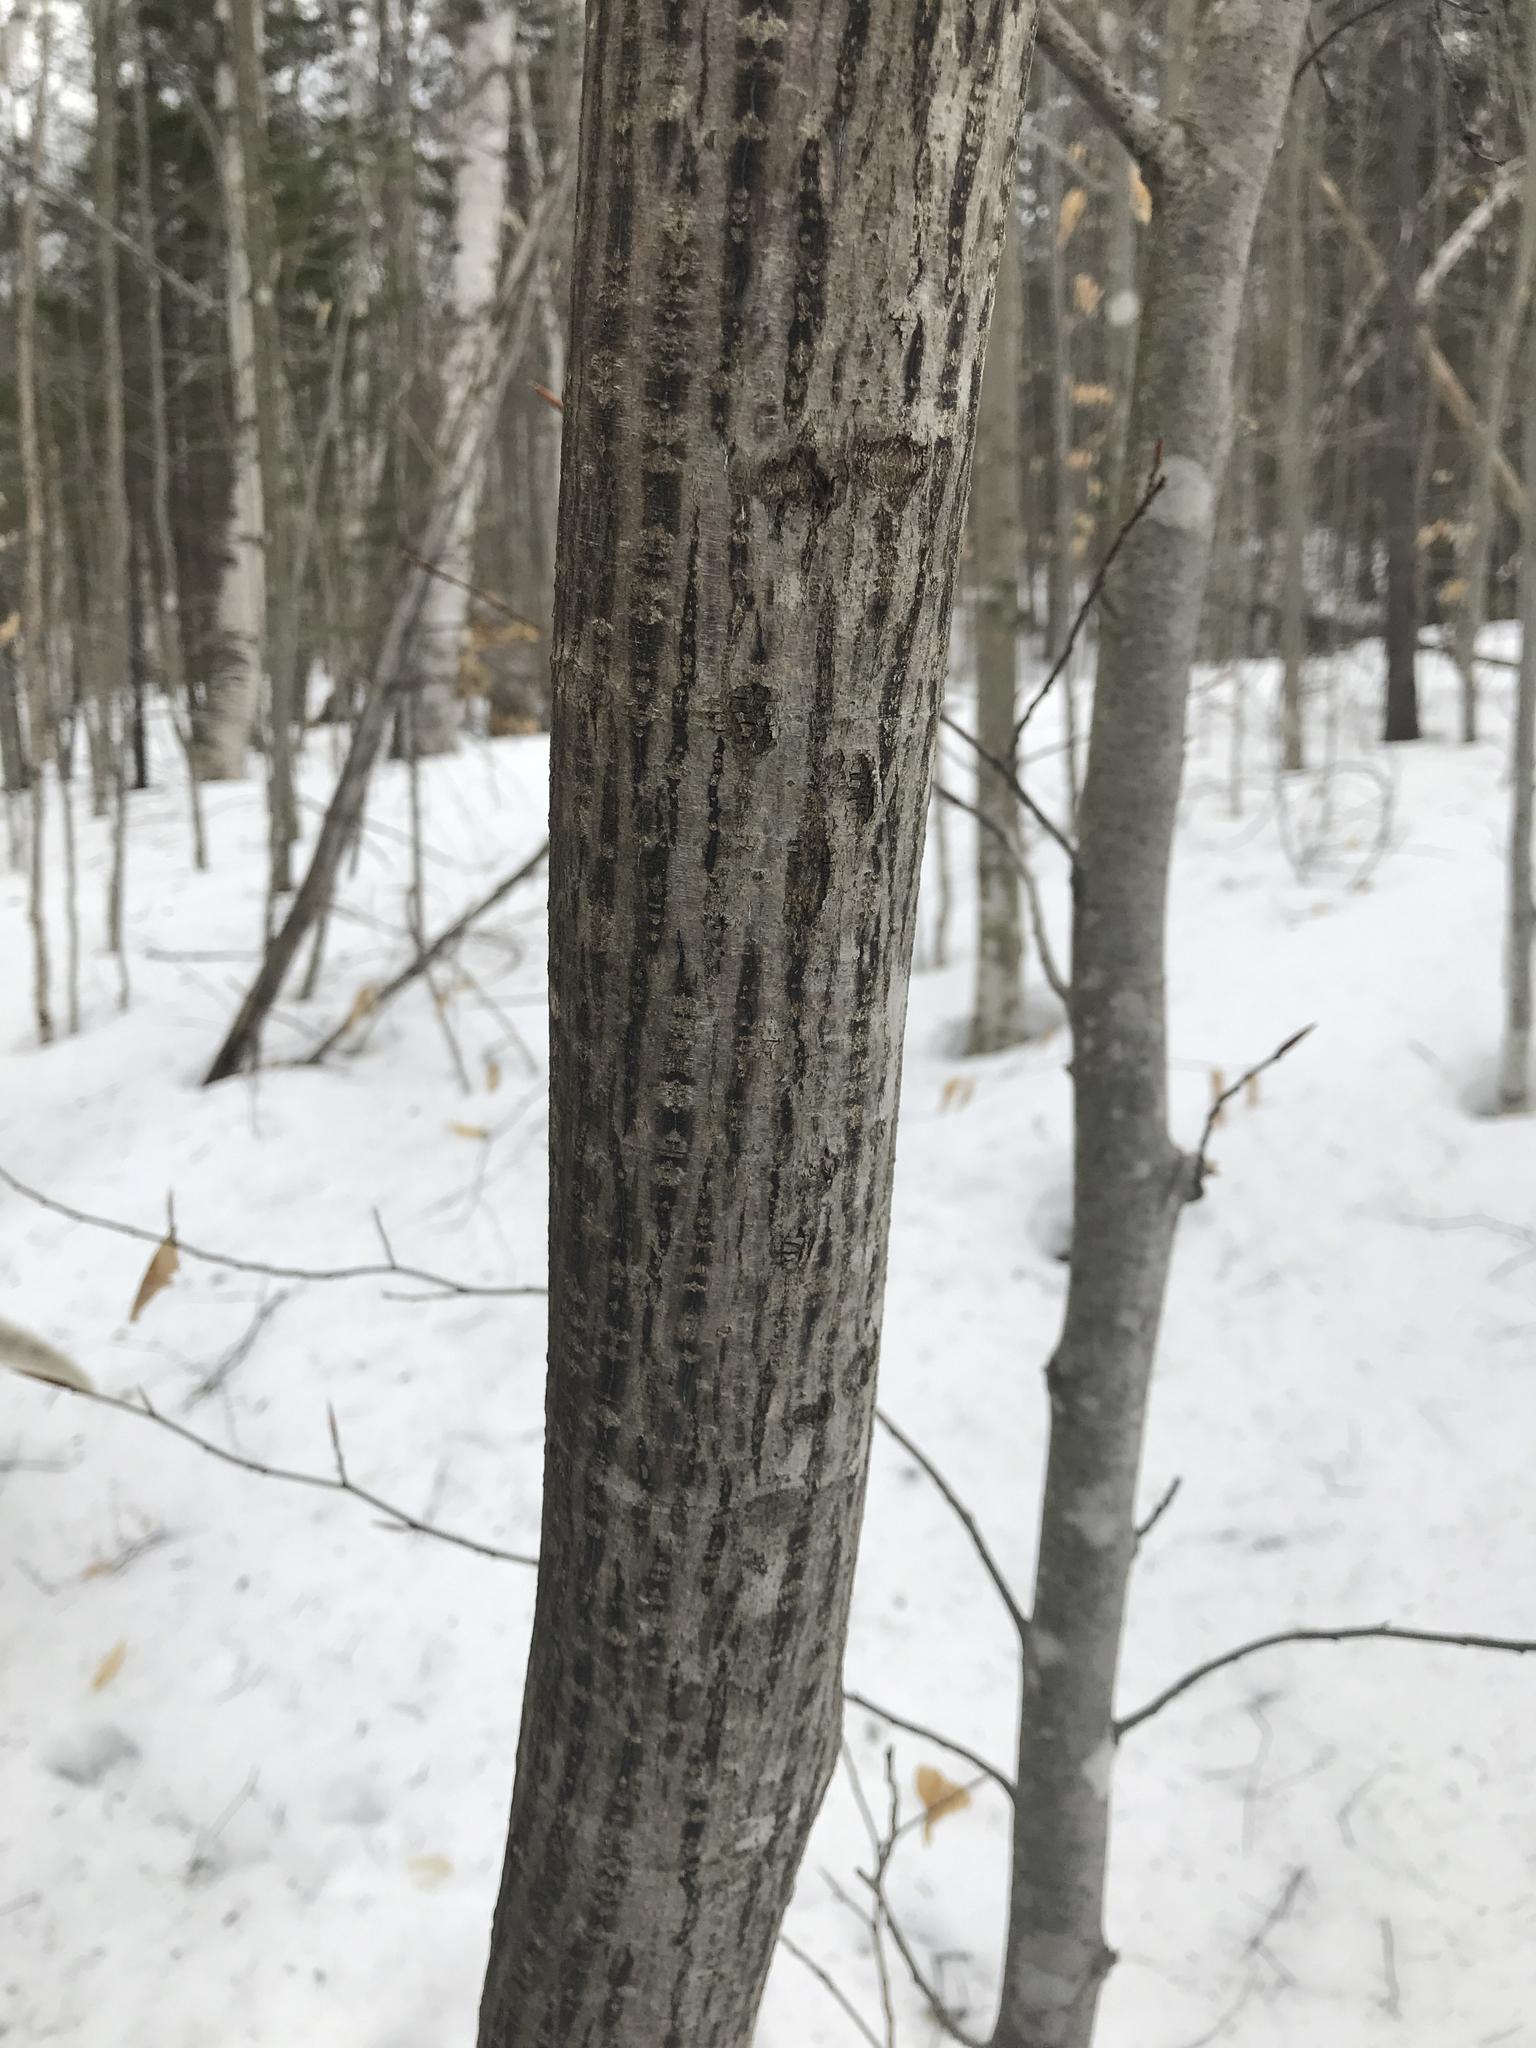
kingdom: Plantae
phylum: Tracheophyta
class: Magnoliopsida
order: Sapindales
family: Sapindaceae
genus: Acer
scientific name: Acer pensylvanicum
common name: Moosewood
